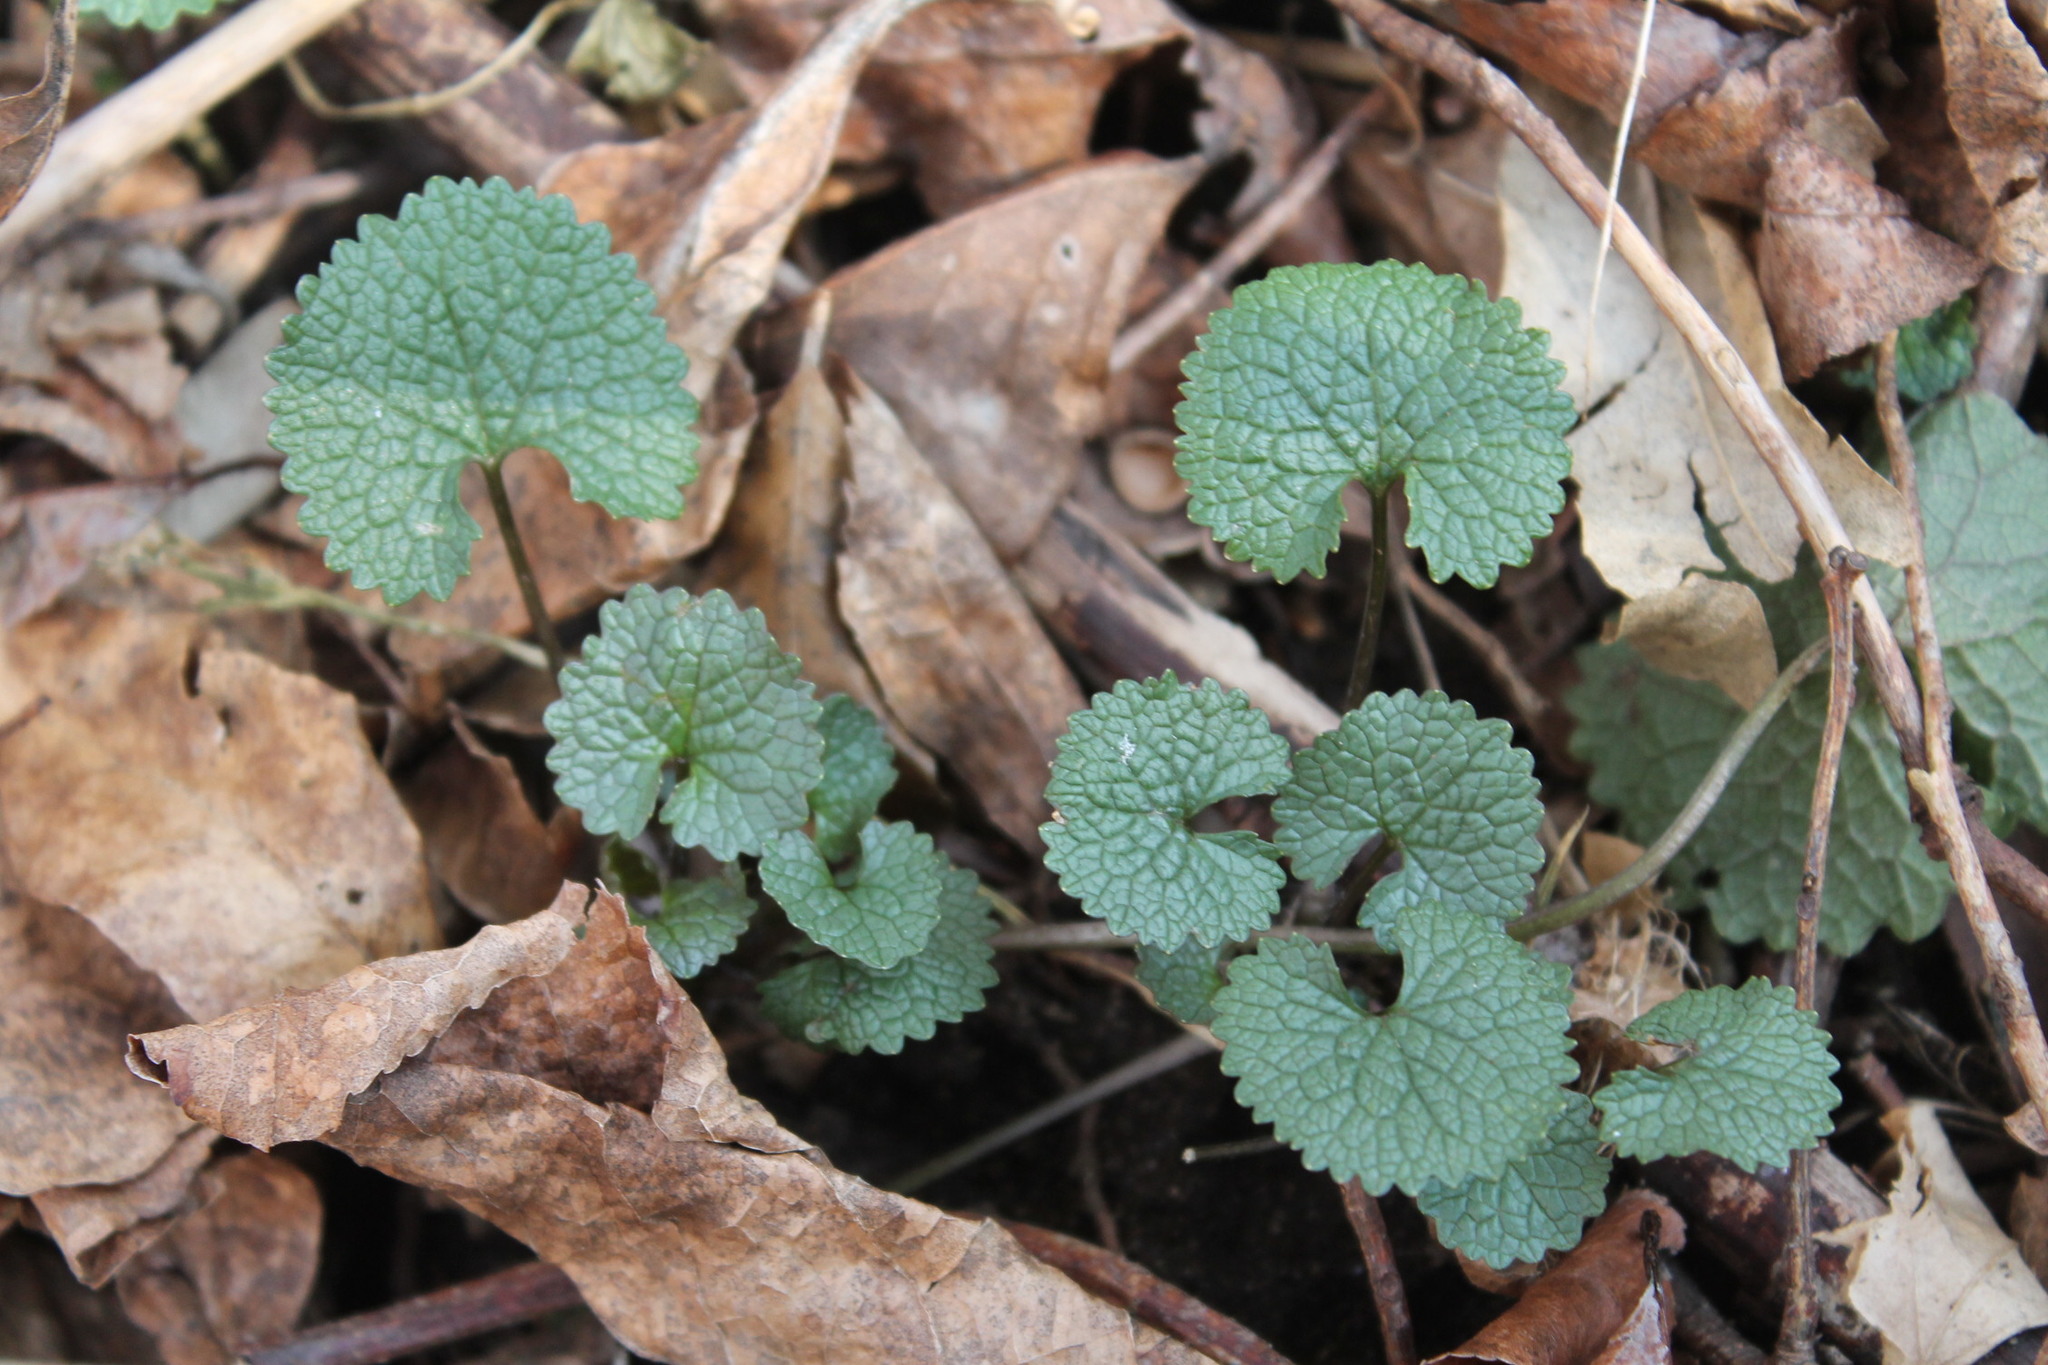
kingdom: Plantae
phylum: Tracheophyta
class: Magnoliopsida
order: Brassicales
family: Brassicaceae
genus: Alliaria
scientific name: Alliaria petiolata
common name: Garlic mustard
